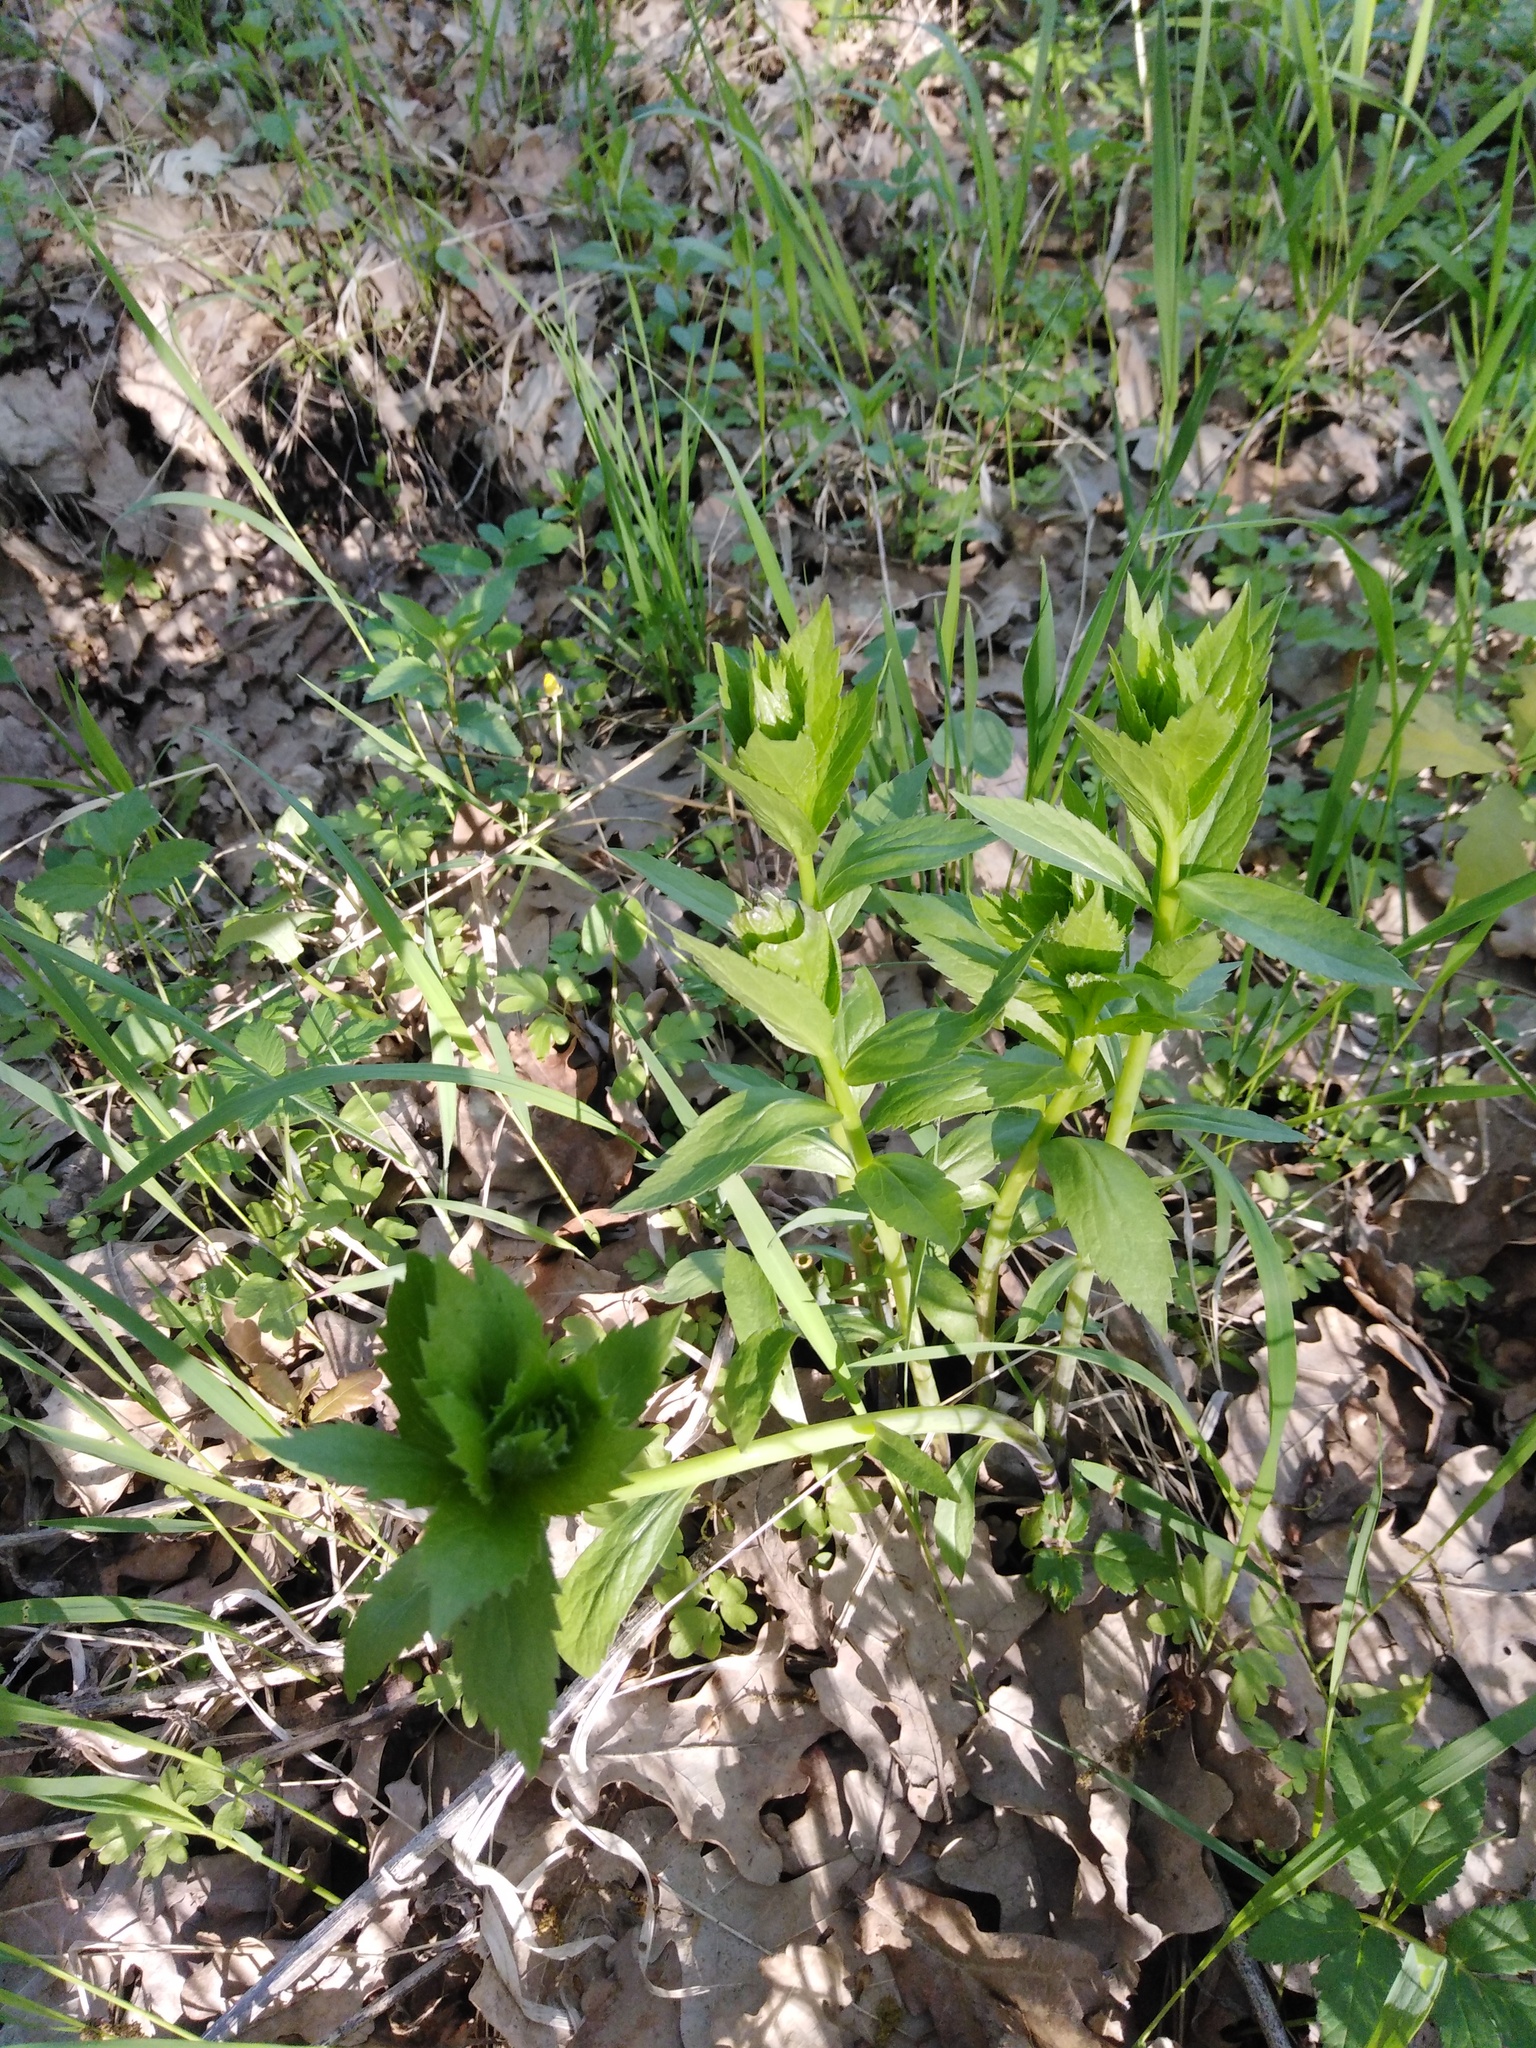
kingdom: Plantae
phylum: Tracheophyta
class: Magnoliopsida
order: Asterales
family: Campanulaceae
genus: Adenophora
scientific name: Adenophora liliifolia
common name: Lilyleaf ladybells
